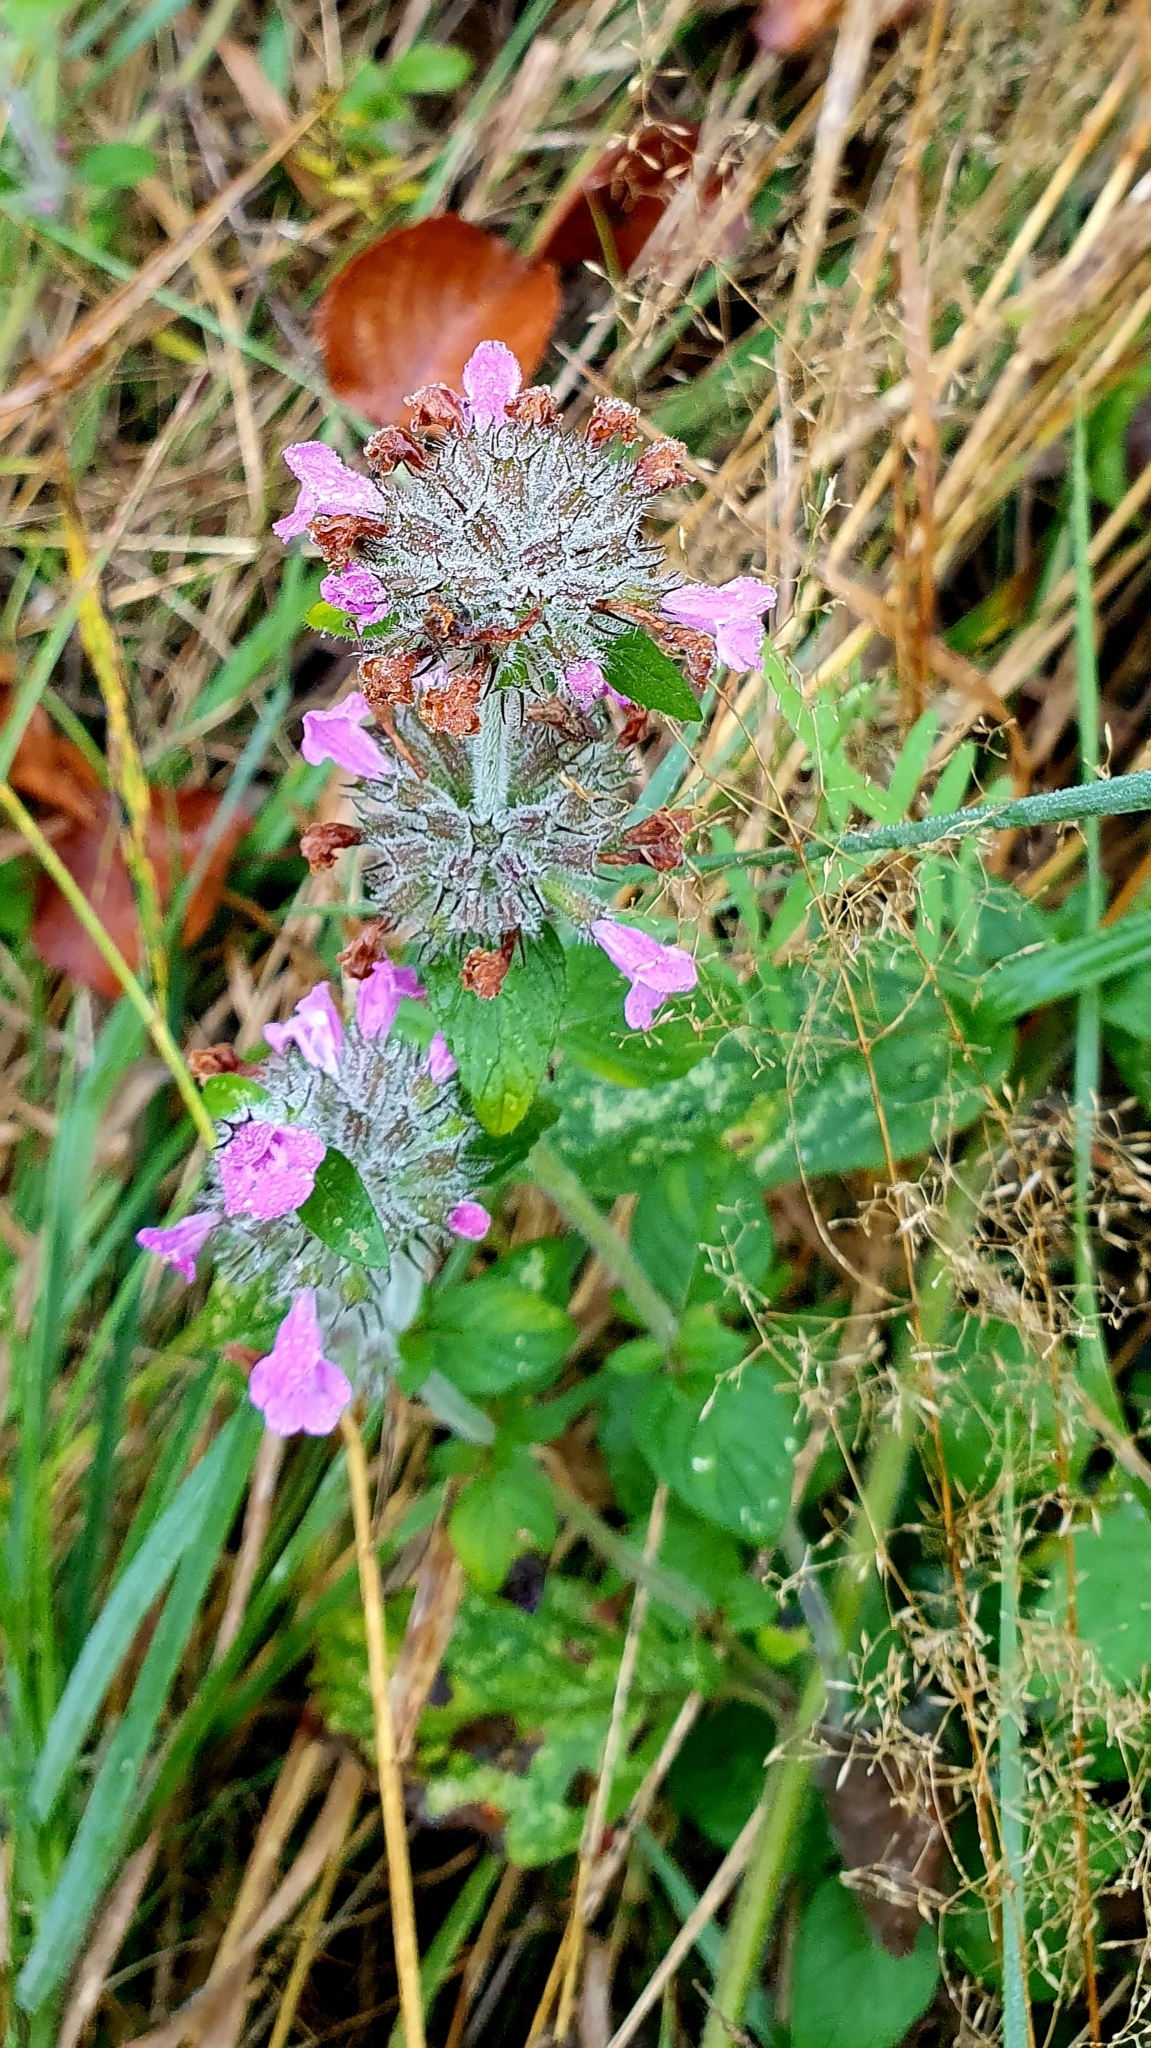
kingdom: Plantae
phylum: Tracheophyta
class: Magnoliopsida
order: Lamiales
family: Lamiaceae
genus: Clinopodium
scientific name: Clinopodium vulgare
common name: Wild basil
